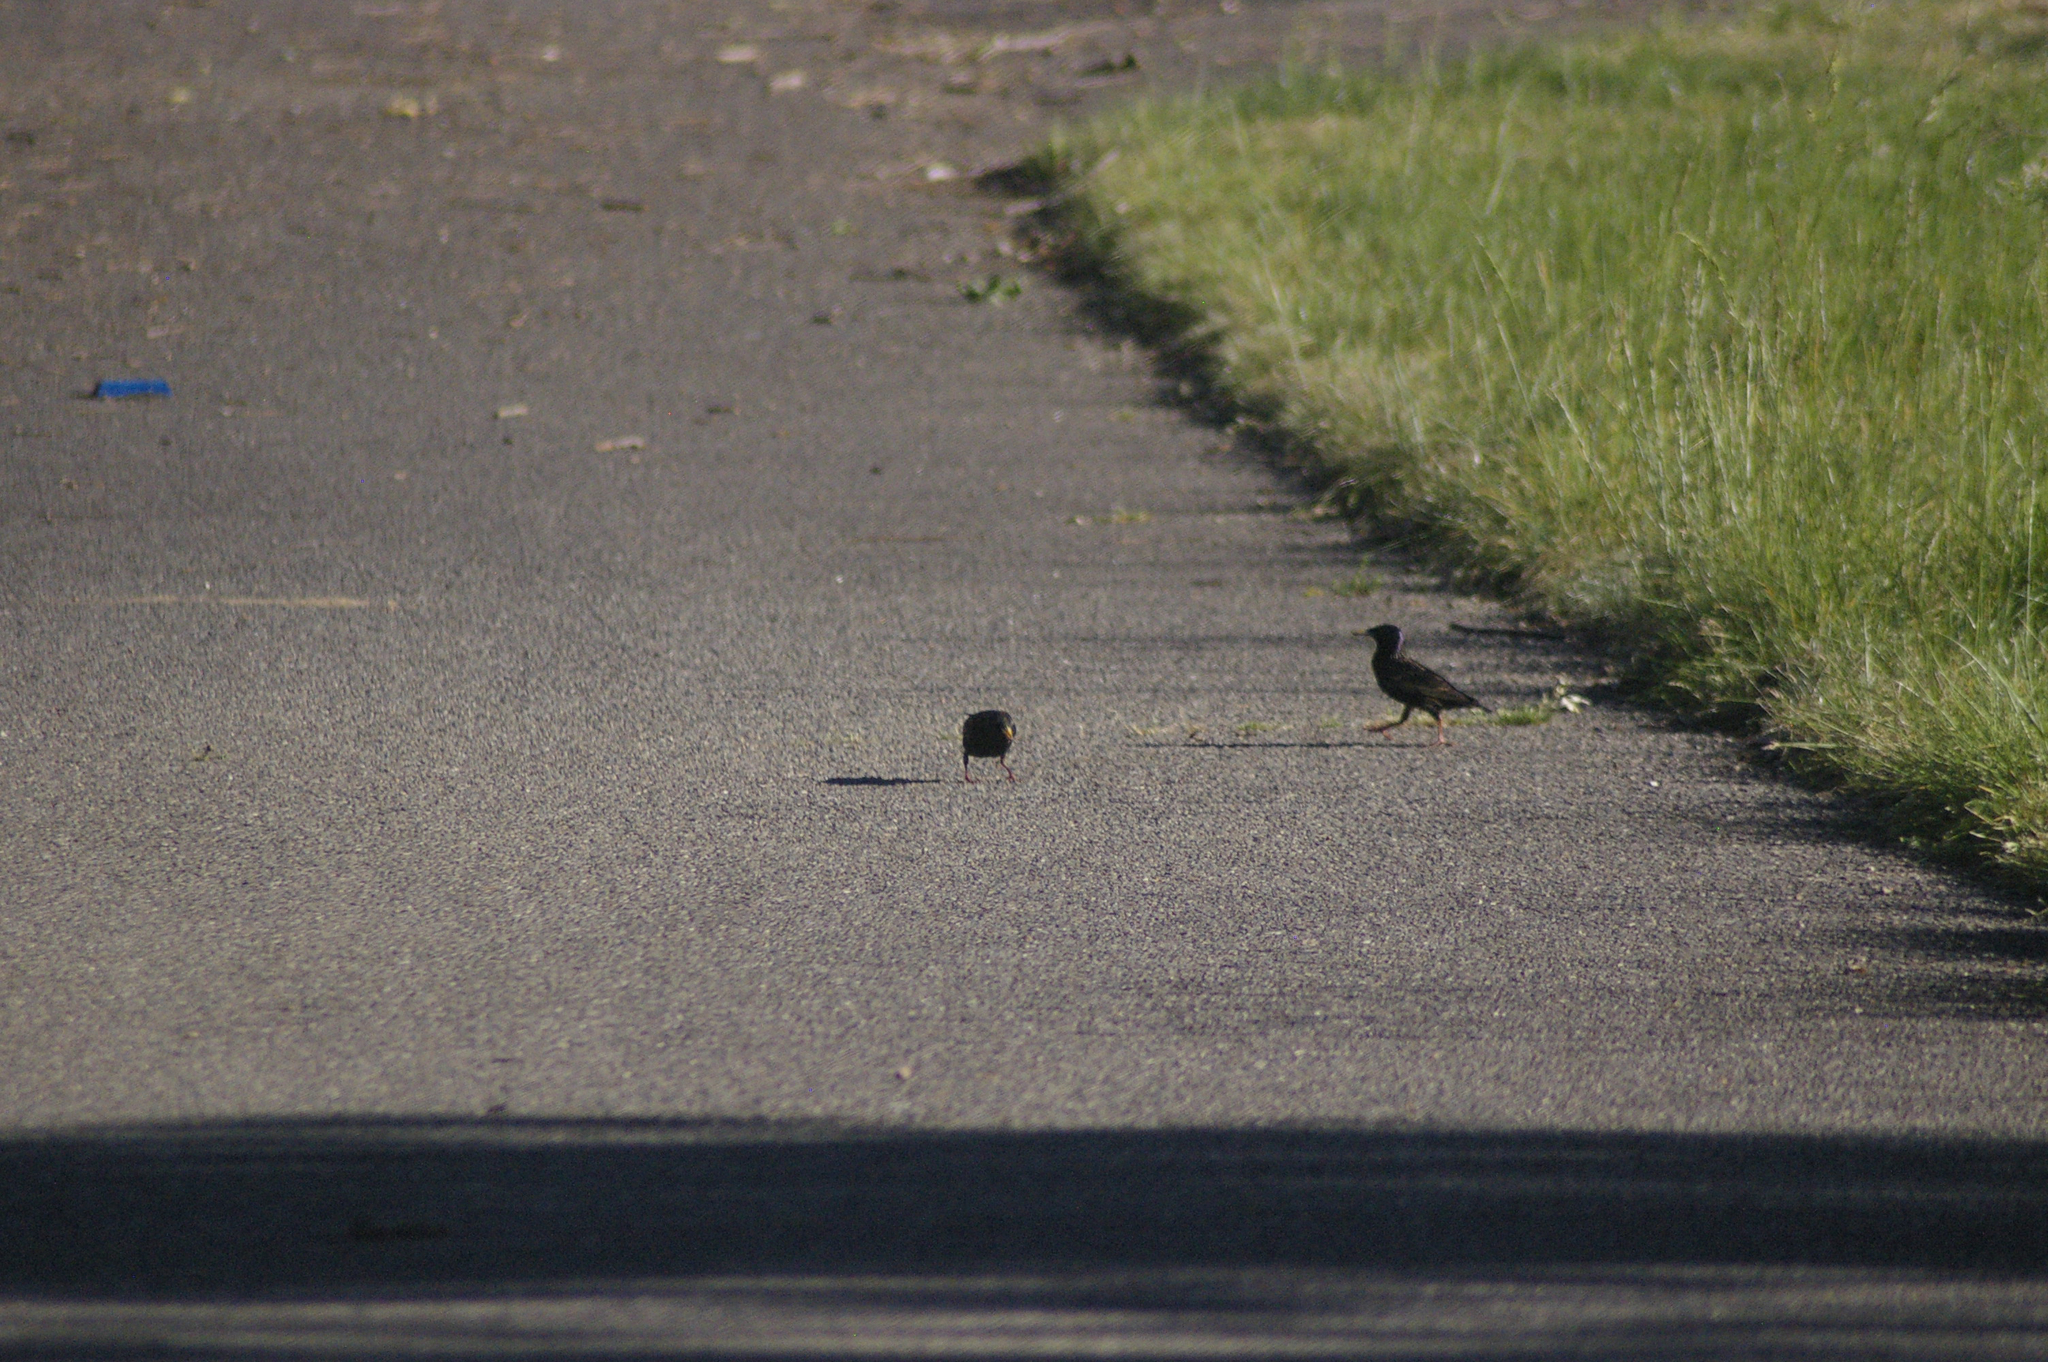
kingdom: Animalia
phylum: Chordata
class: Aves
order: Passeriformes
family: Sturnidae
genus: Sturnus
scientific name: Sturnus vulgaris
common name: Common starling
